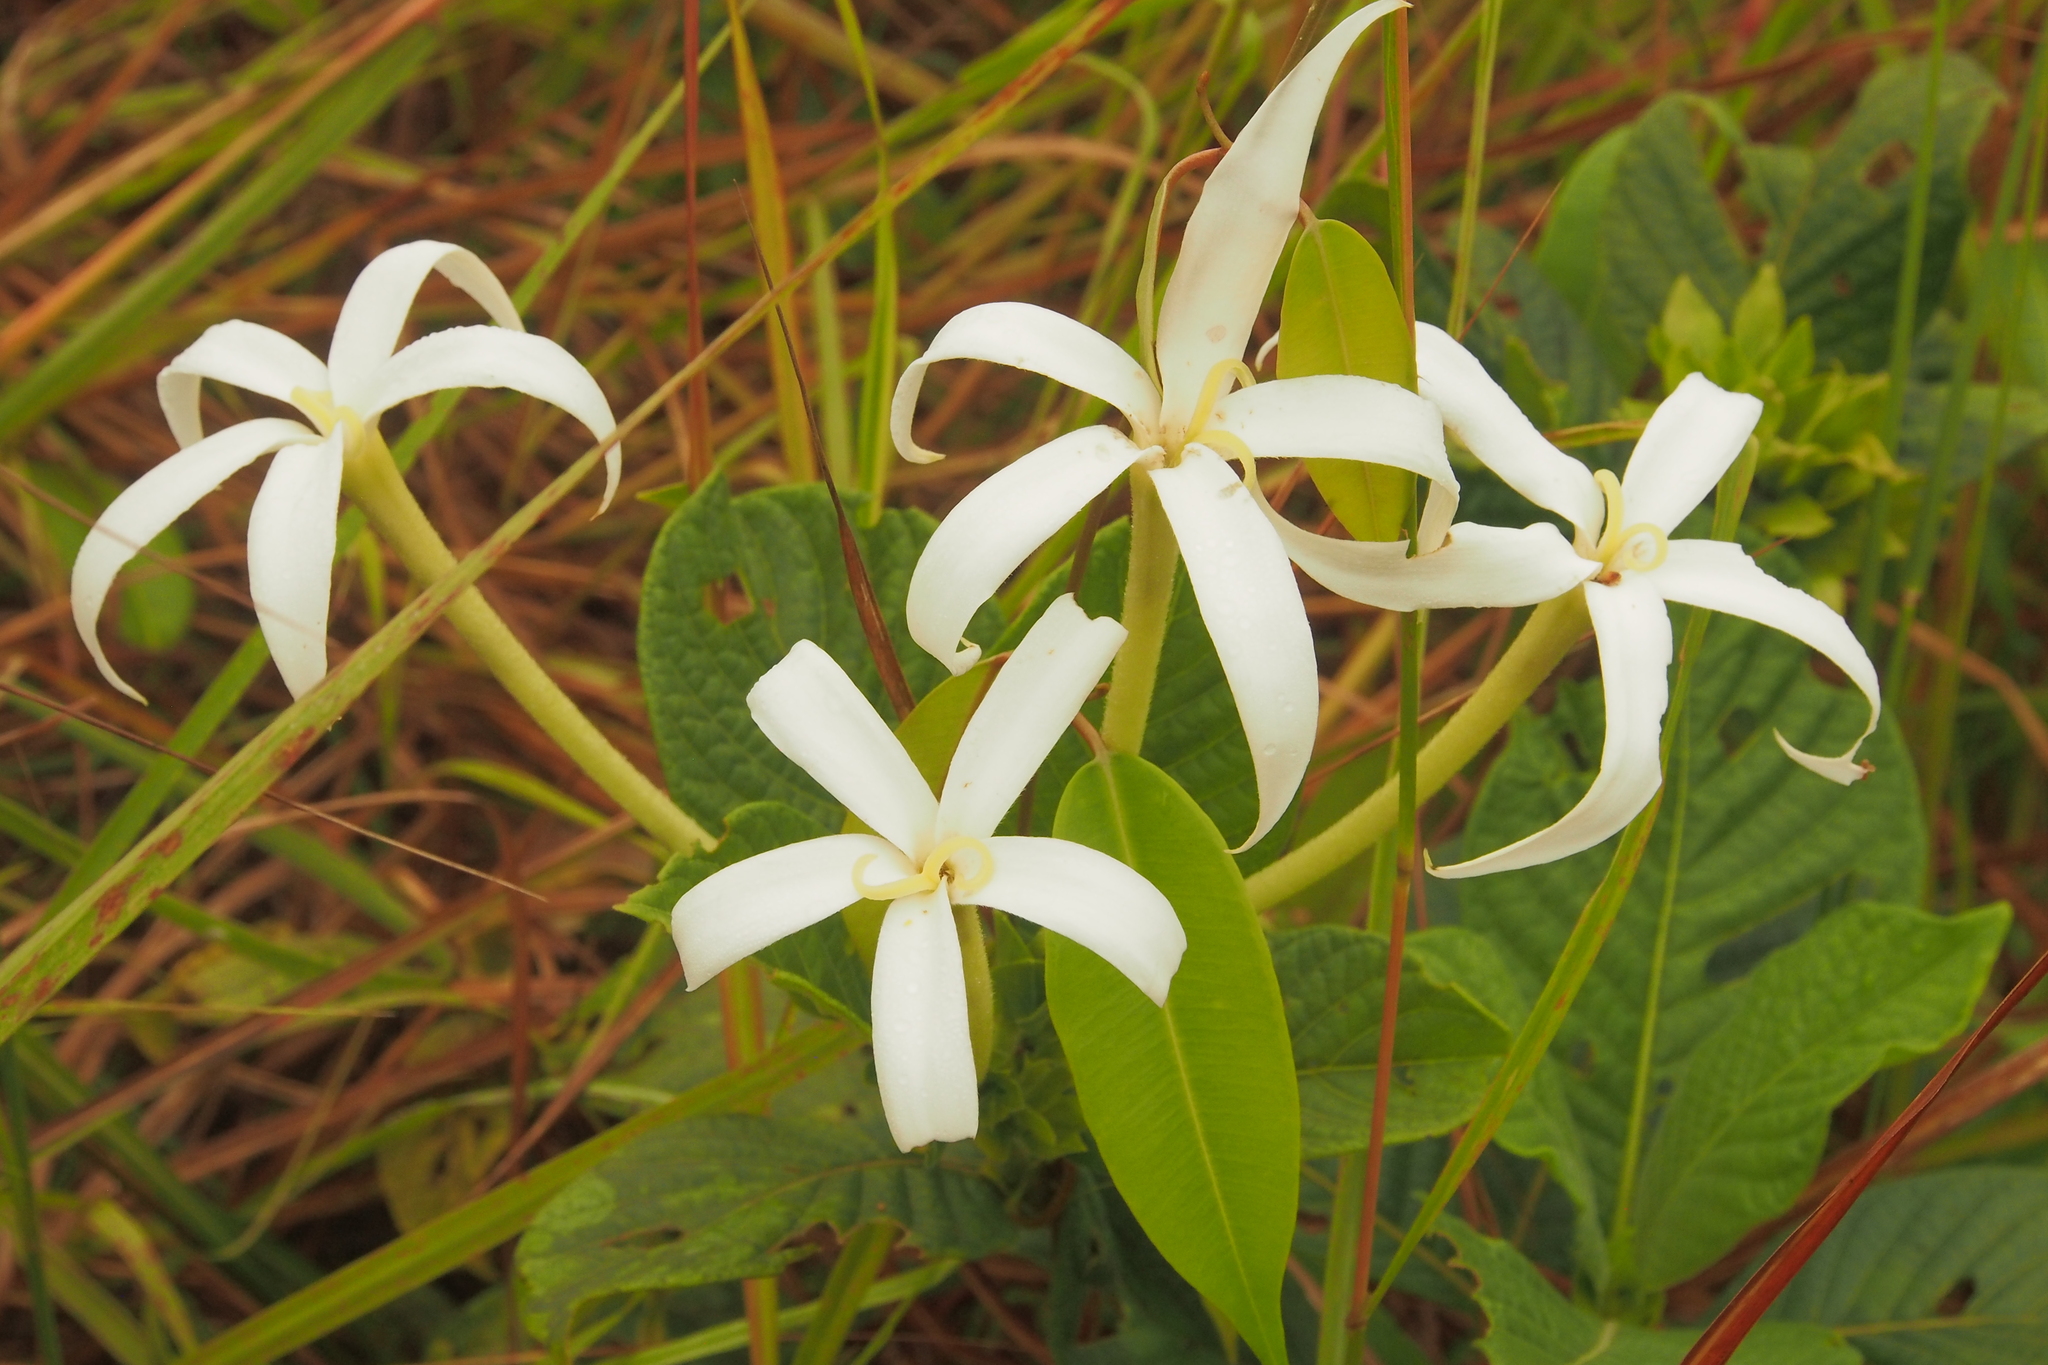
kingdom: Plantae
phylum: Tracheophyta
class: Magnoliopsida
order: Gentianales
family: Rubiaceae
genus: Leptactina
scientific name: Leptactina formosa
